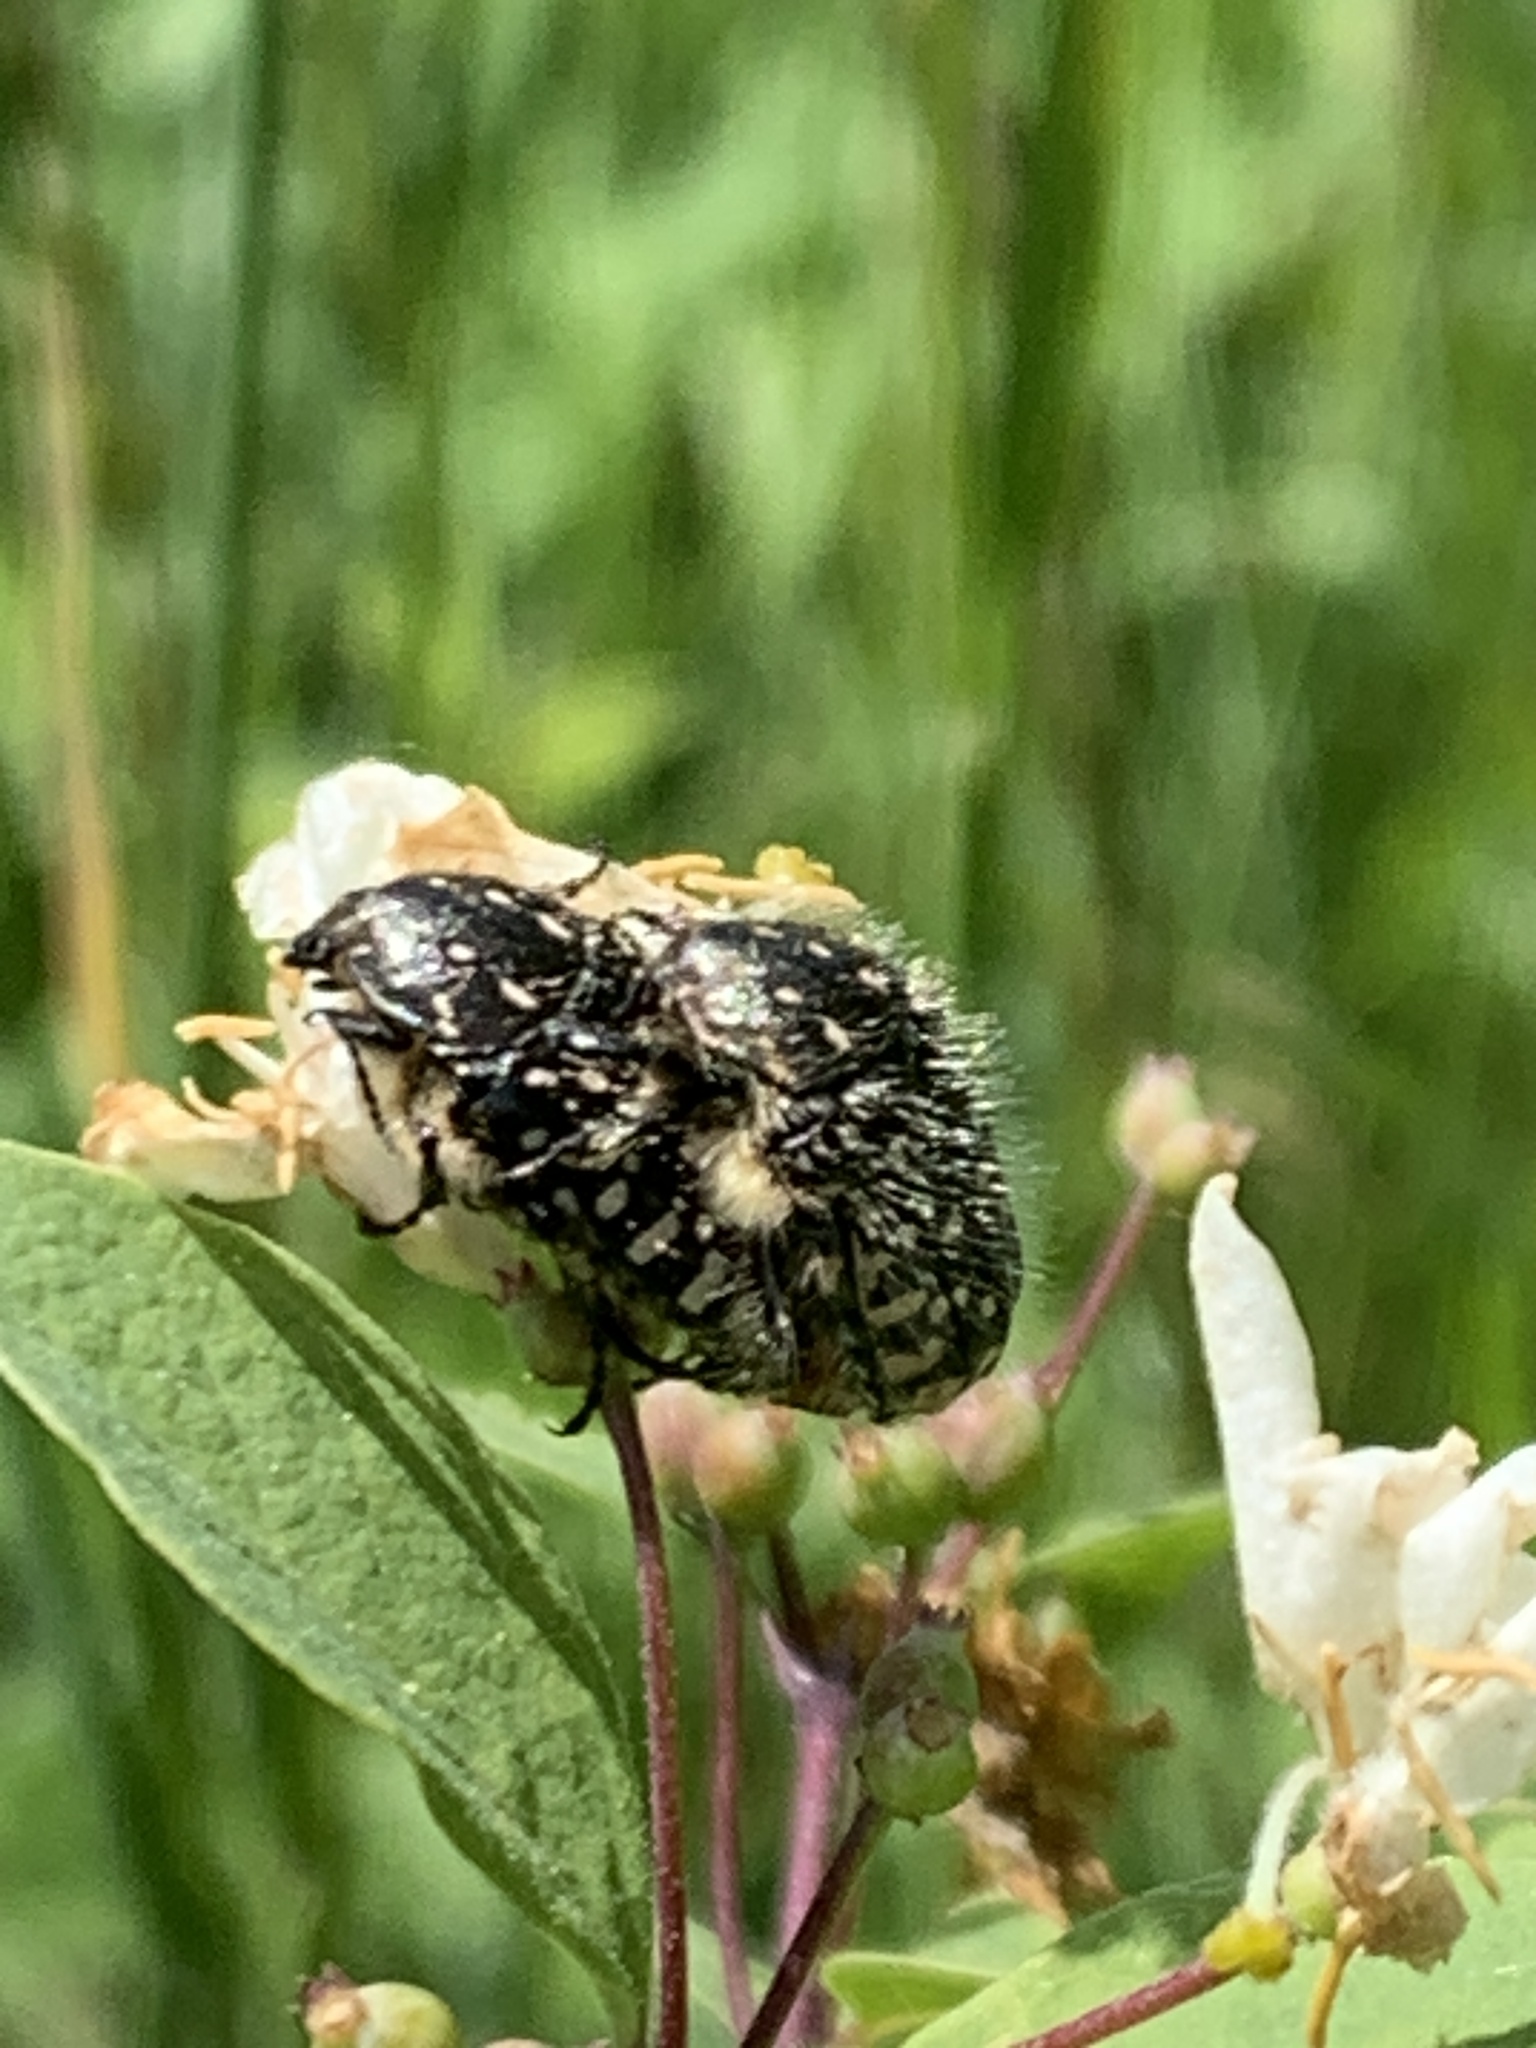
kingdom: Animalia
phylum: Arthropoda
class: Insecta
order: Coleoptera
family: Scarabaeidae
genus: Oxythyrea
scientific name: Oxythyrea funesta
